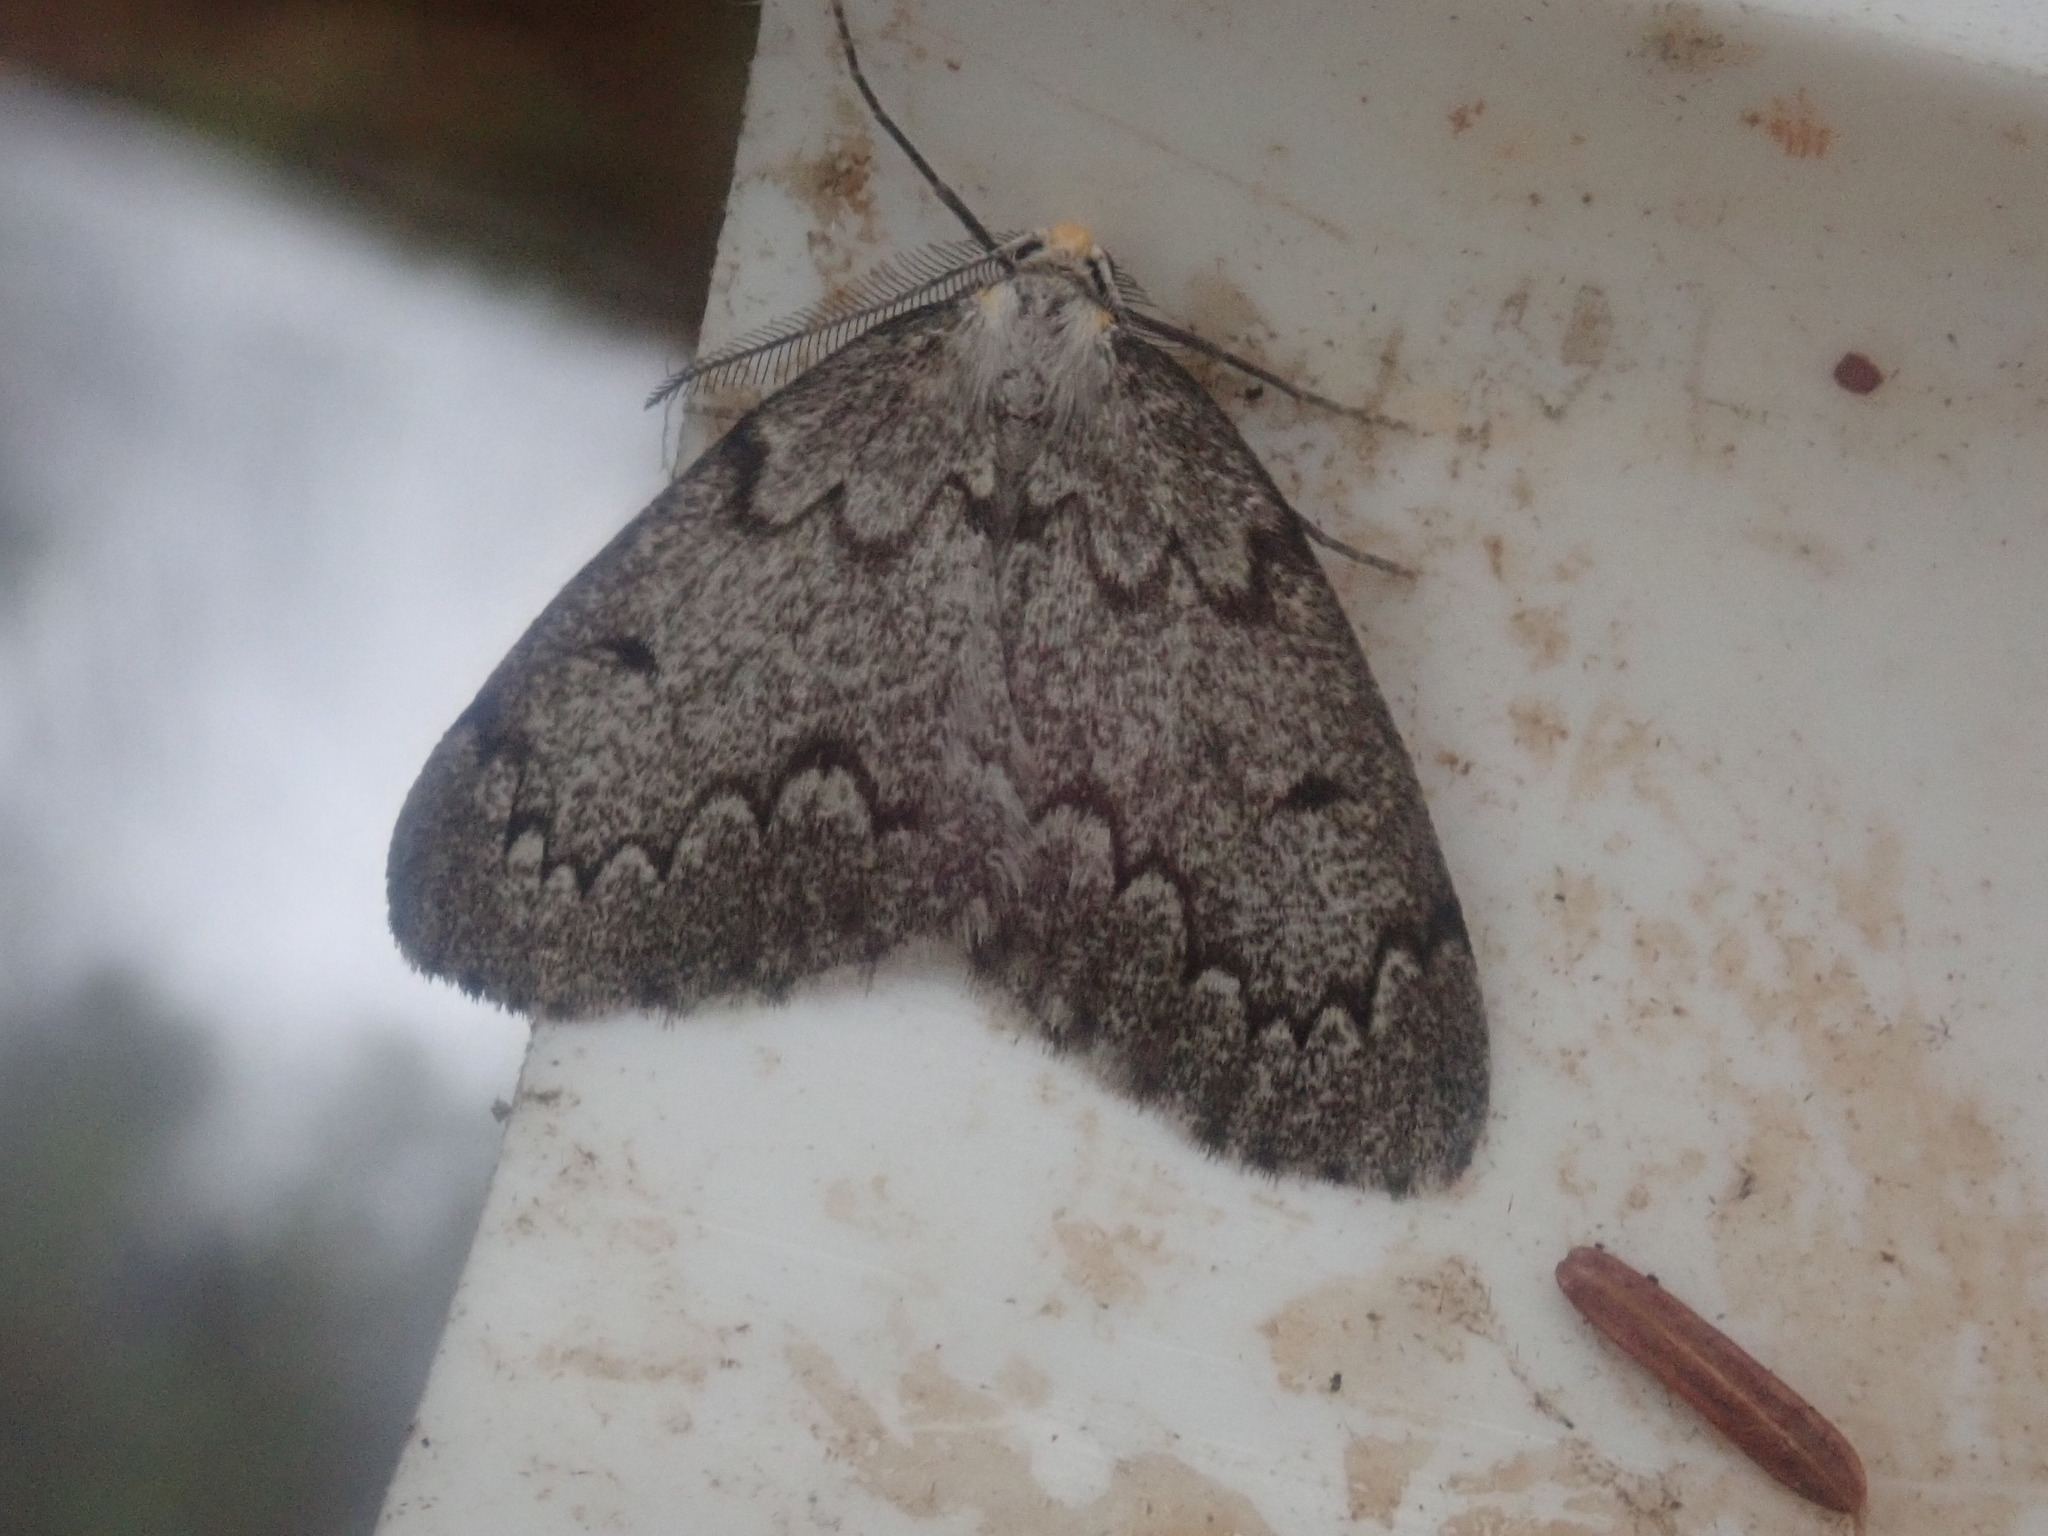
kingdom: Animalia
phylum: Arthropoda
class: Insecta
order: Lepidoptera
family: Geometridae
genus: Nepytia
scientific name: Nepytia canosaria
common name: False hemlock looper
